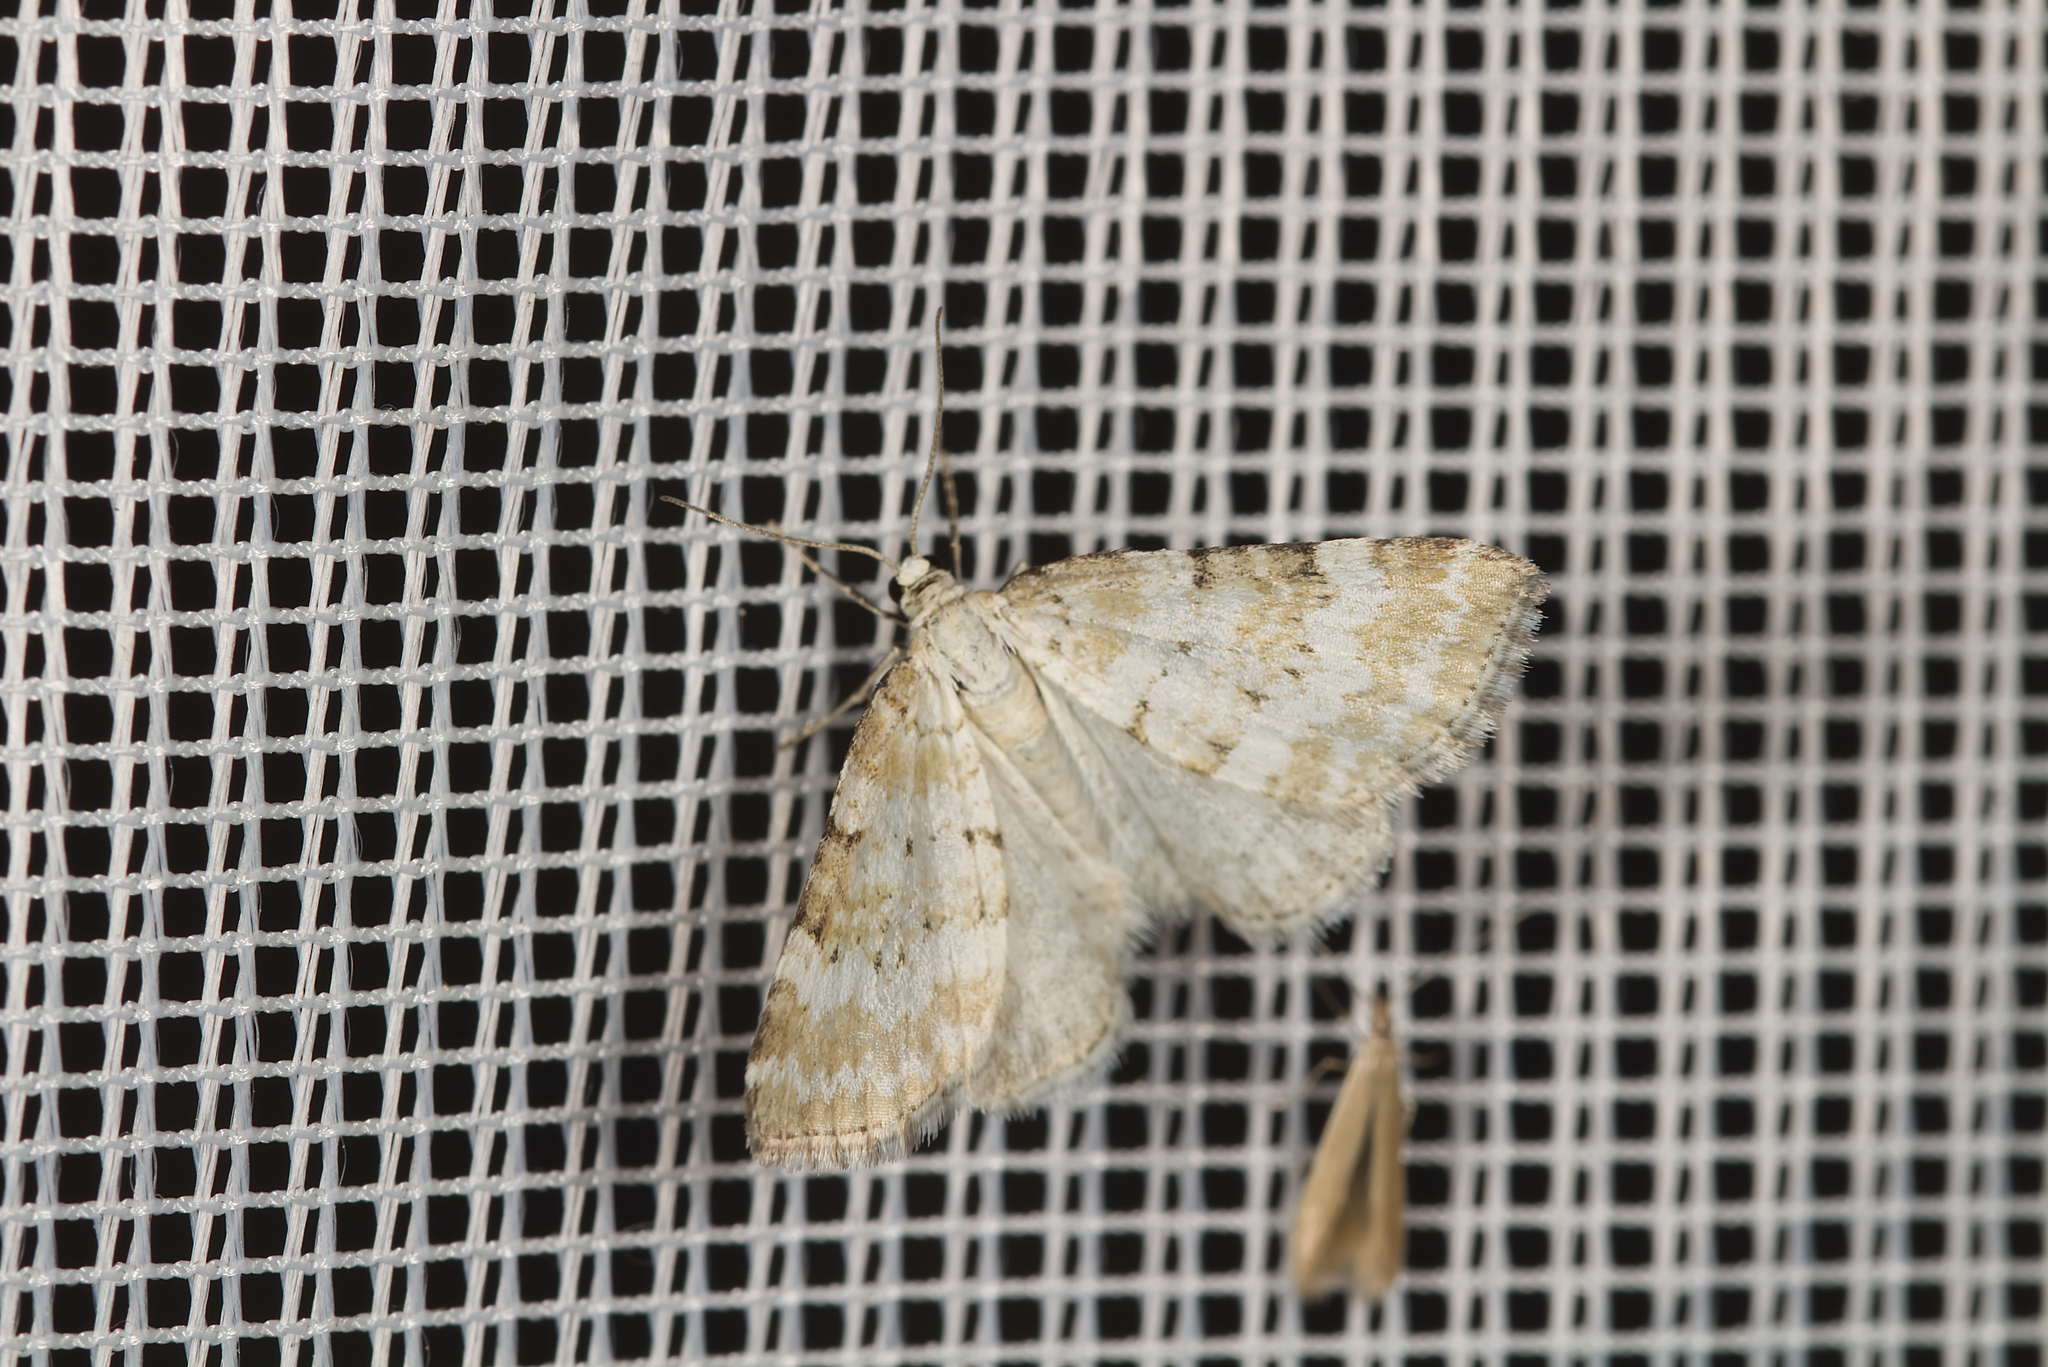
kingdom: Animalia
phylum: Arthropoda
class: Insecta
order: Lepidoptera
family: Geometridae
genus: Perizoma
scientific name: Perizoma albulata
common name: Grass rivulet
